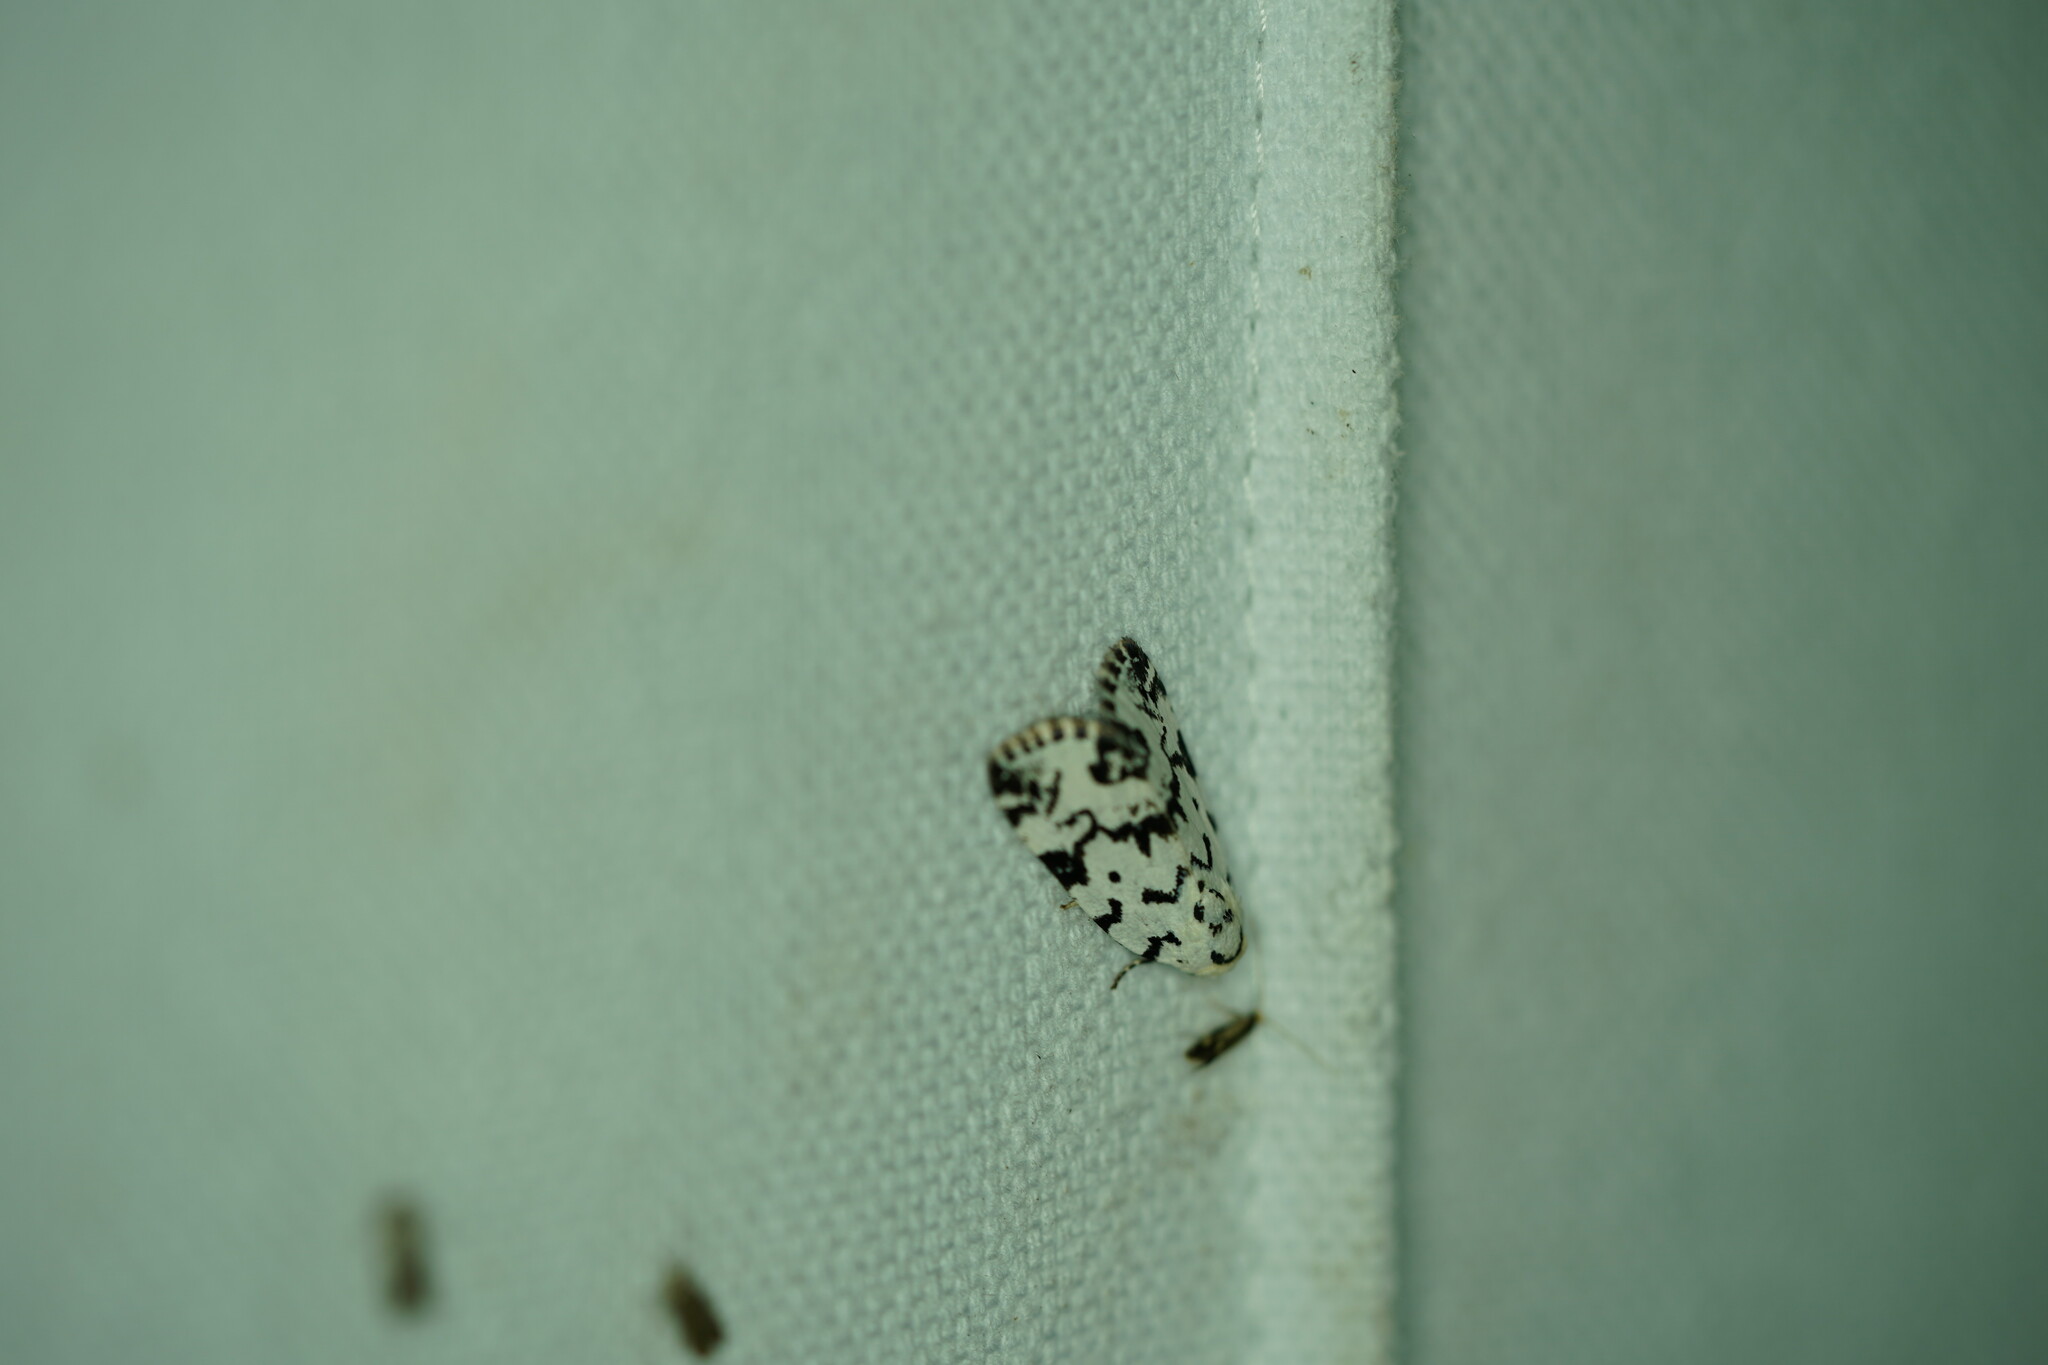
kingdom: Animalia
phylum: Arthropoda
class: Insecta
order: Lepidoptera
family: Noctuidae
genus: Polygrammate
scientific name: Polygrammate hebraeicum
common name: Hebrew moth
